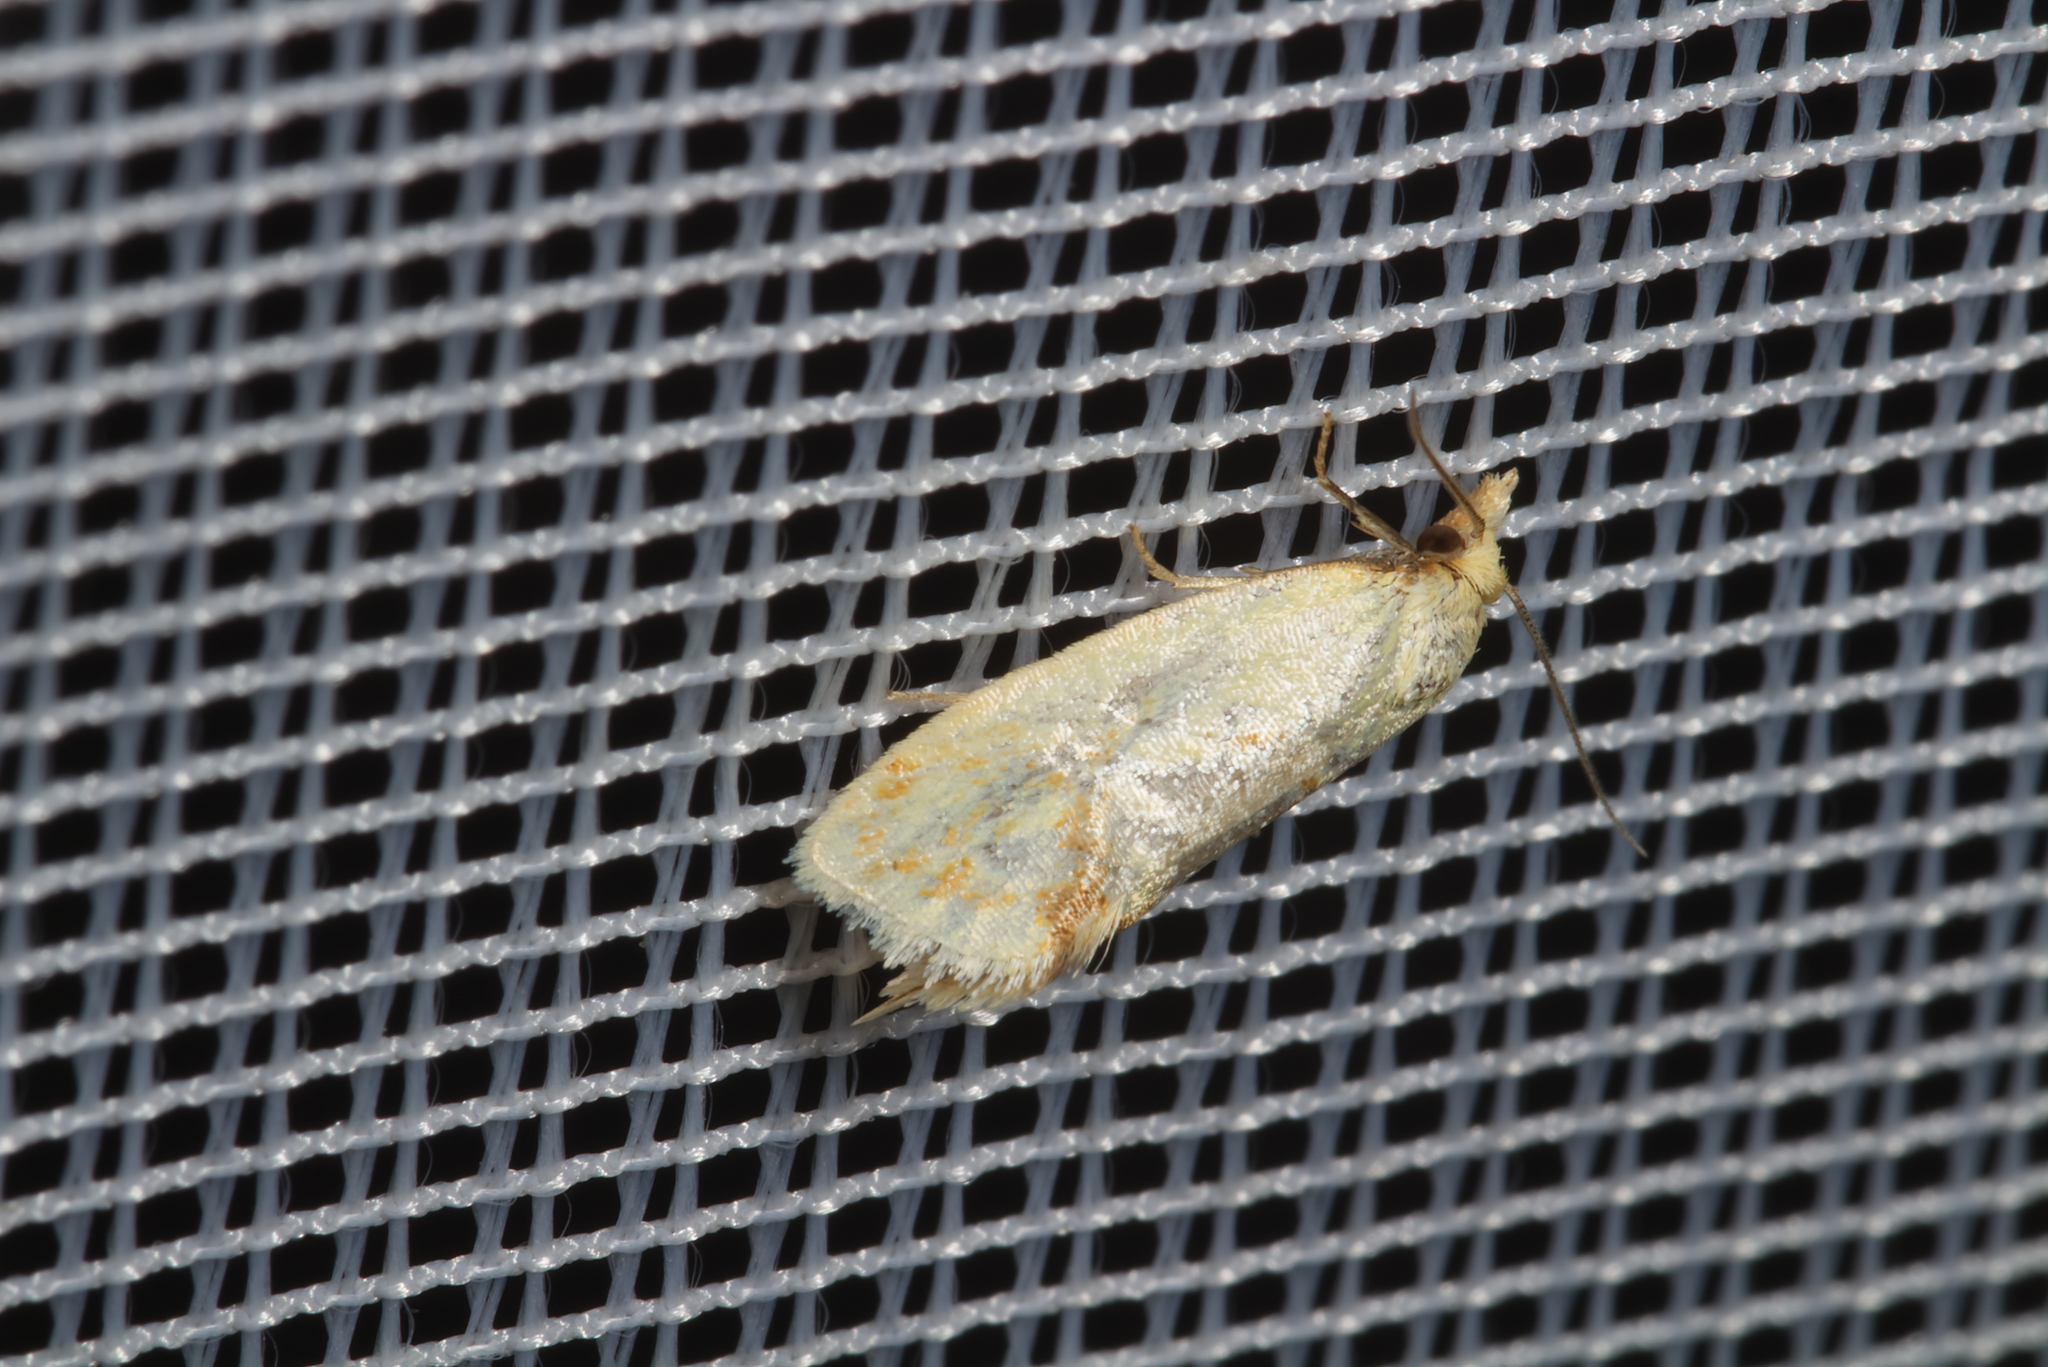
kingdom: Animalia
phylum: Arthropoda
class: Insecta
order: Lepidoptera
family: Tortricidae
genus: Agapeta
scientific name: Agapeta hamana
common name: Common yellow conch
